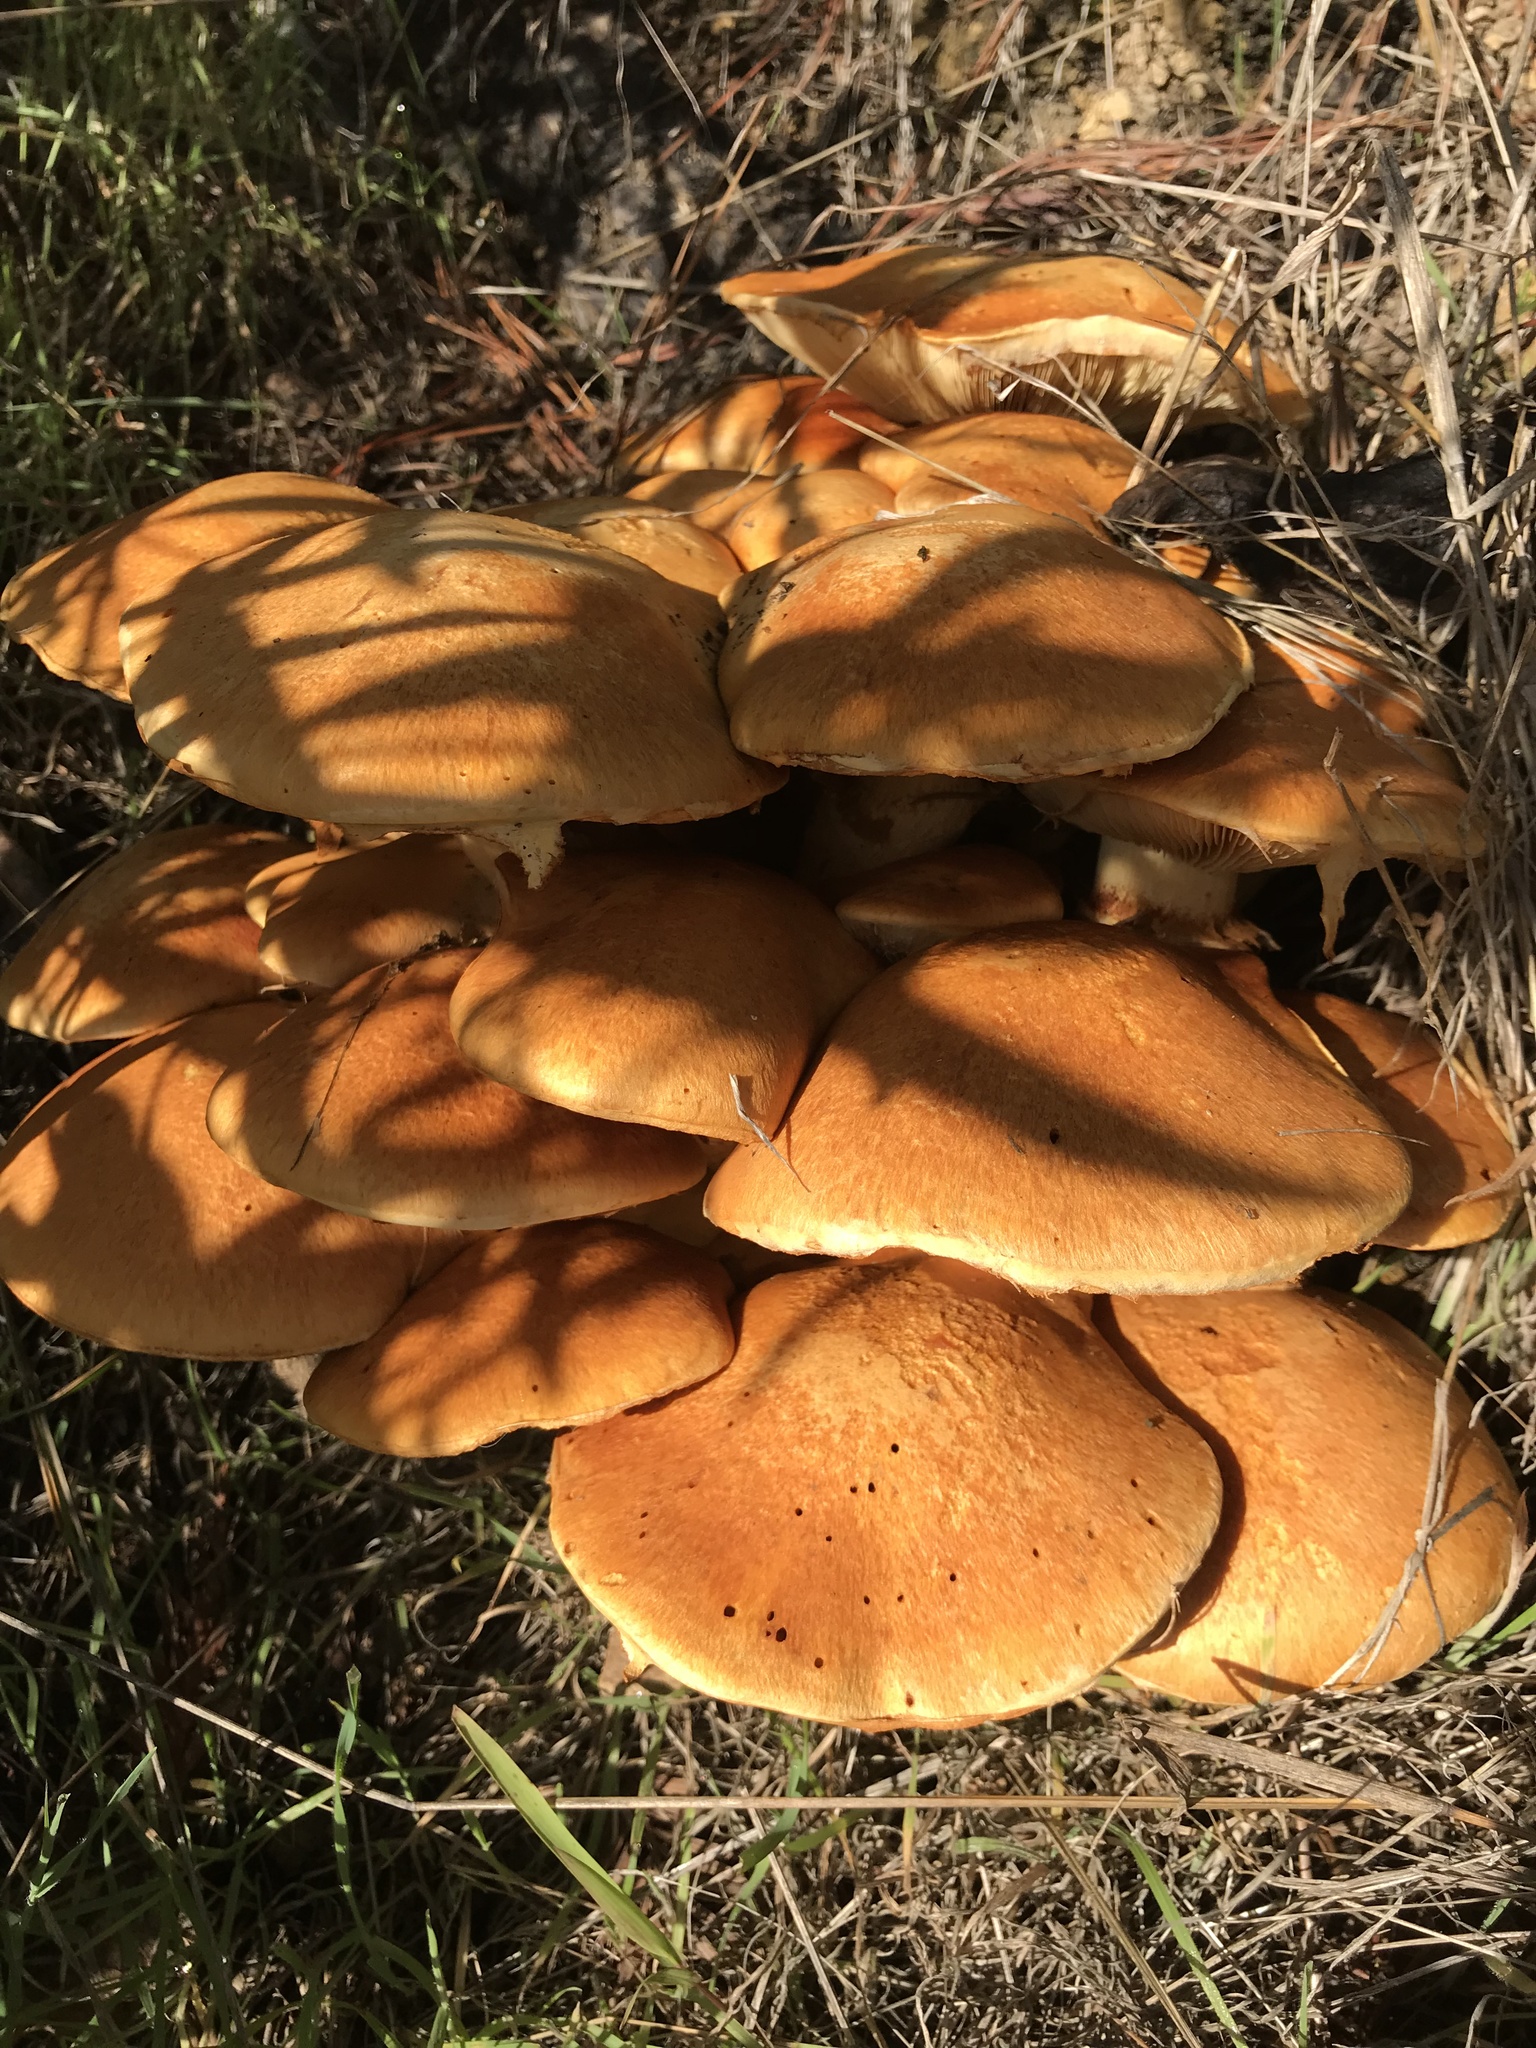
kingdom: Fungi
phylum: Basidiomycota
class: Agaricomycetes
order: Agaricales
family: Hymenogastraceae
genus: Gymnopilus
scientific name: Gymnopilus ventricosus
